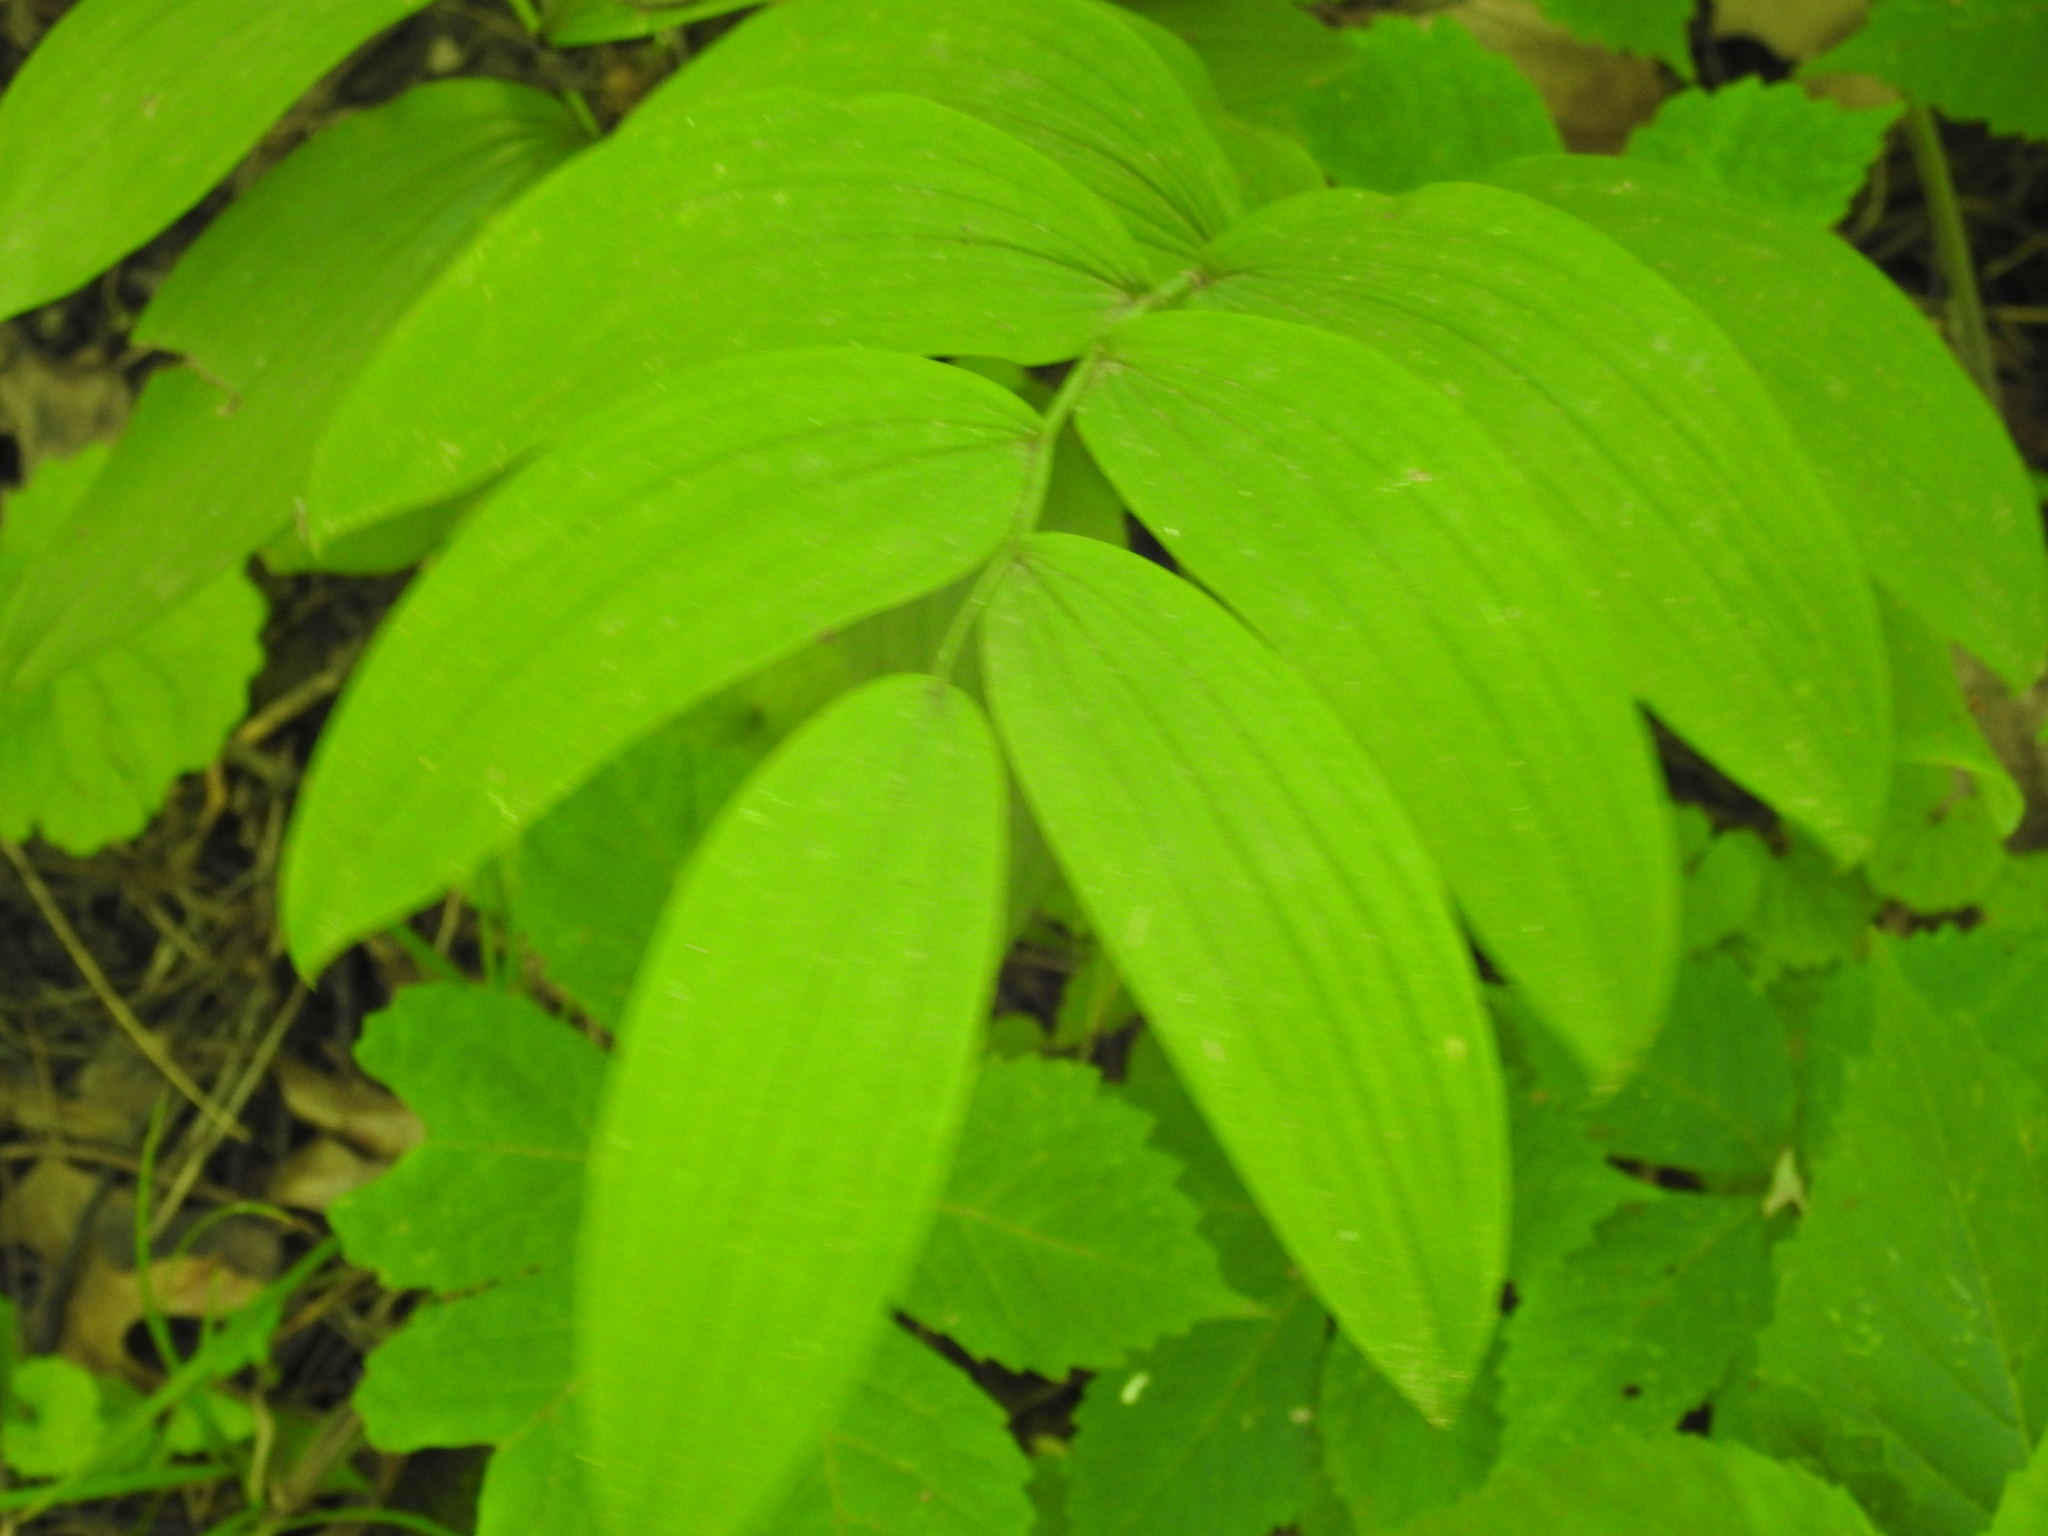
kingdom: Plantae
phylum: Tracheophyta
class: Liliopsida
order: Asparagales
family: Asparagaceae
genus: Polygonatum
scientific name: Polygonatum biflorum
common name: American solomon's-seal
